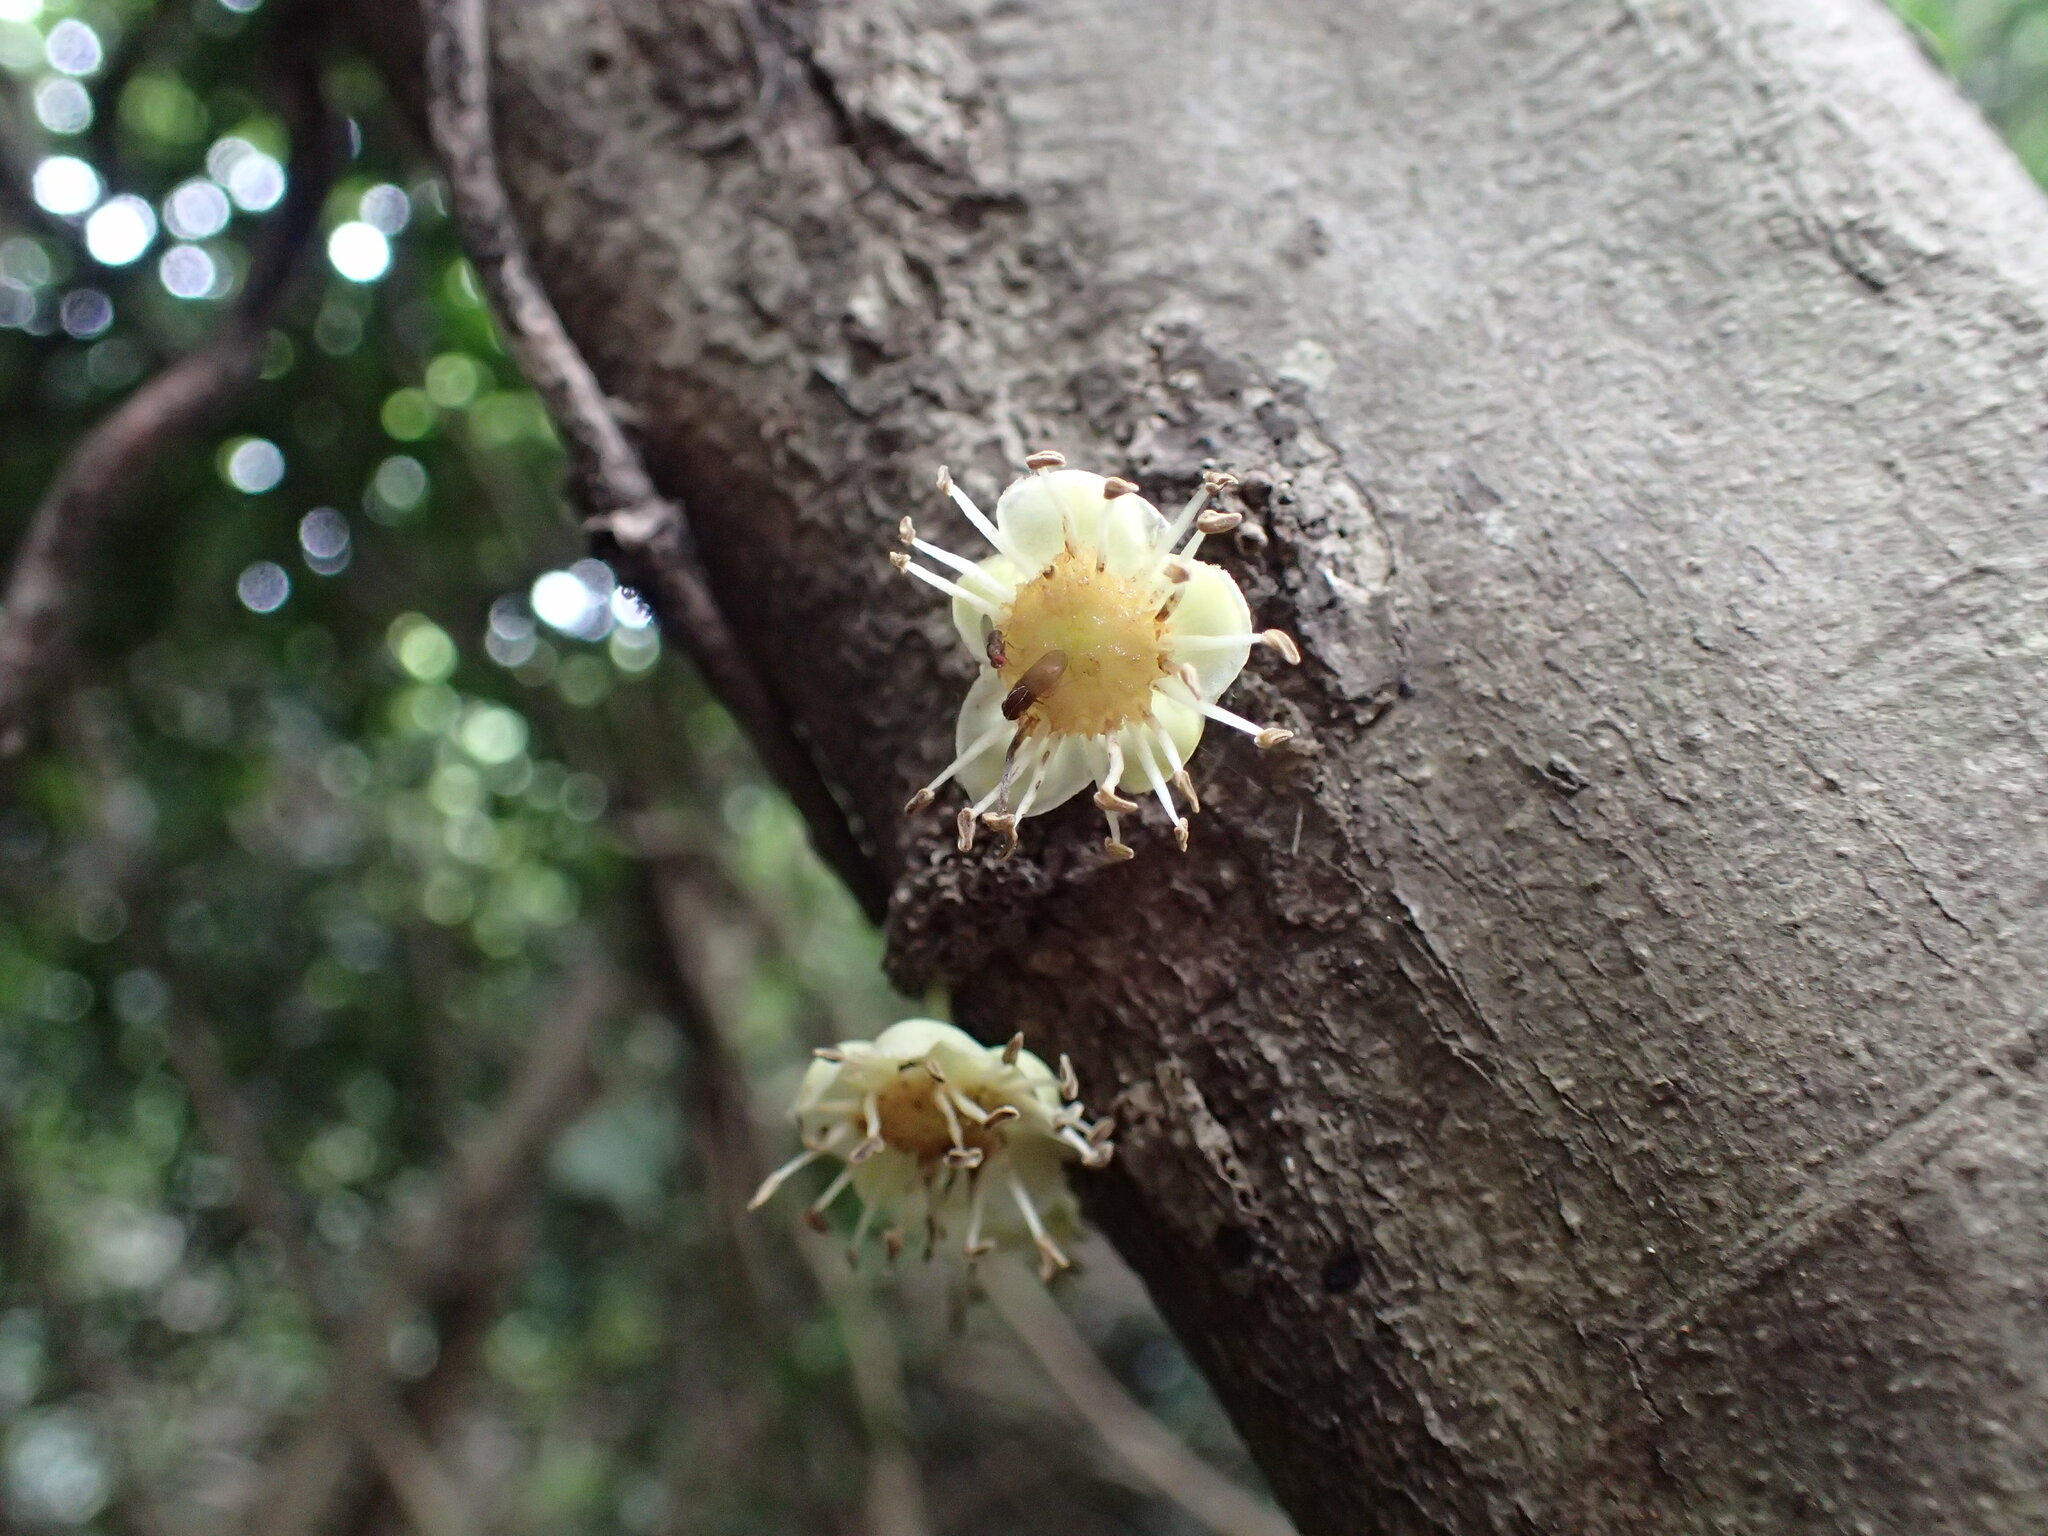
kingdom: Plantae
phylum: Tracheophyta
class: Magnoliopsida
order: Malpighiales
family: Putranjivaceae
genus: Drypetes
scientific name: Drypetes natalensis
